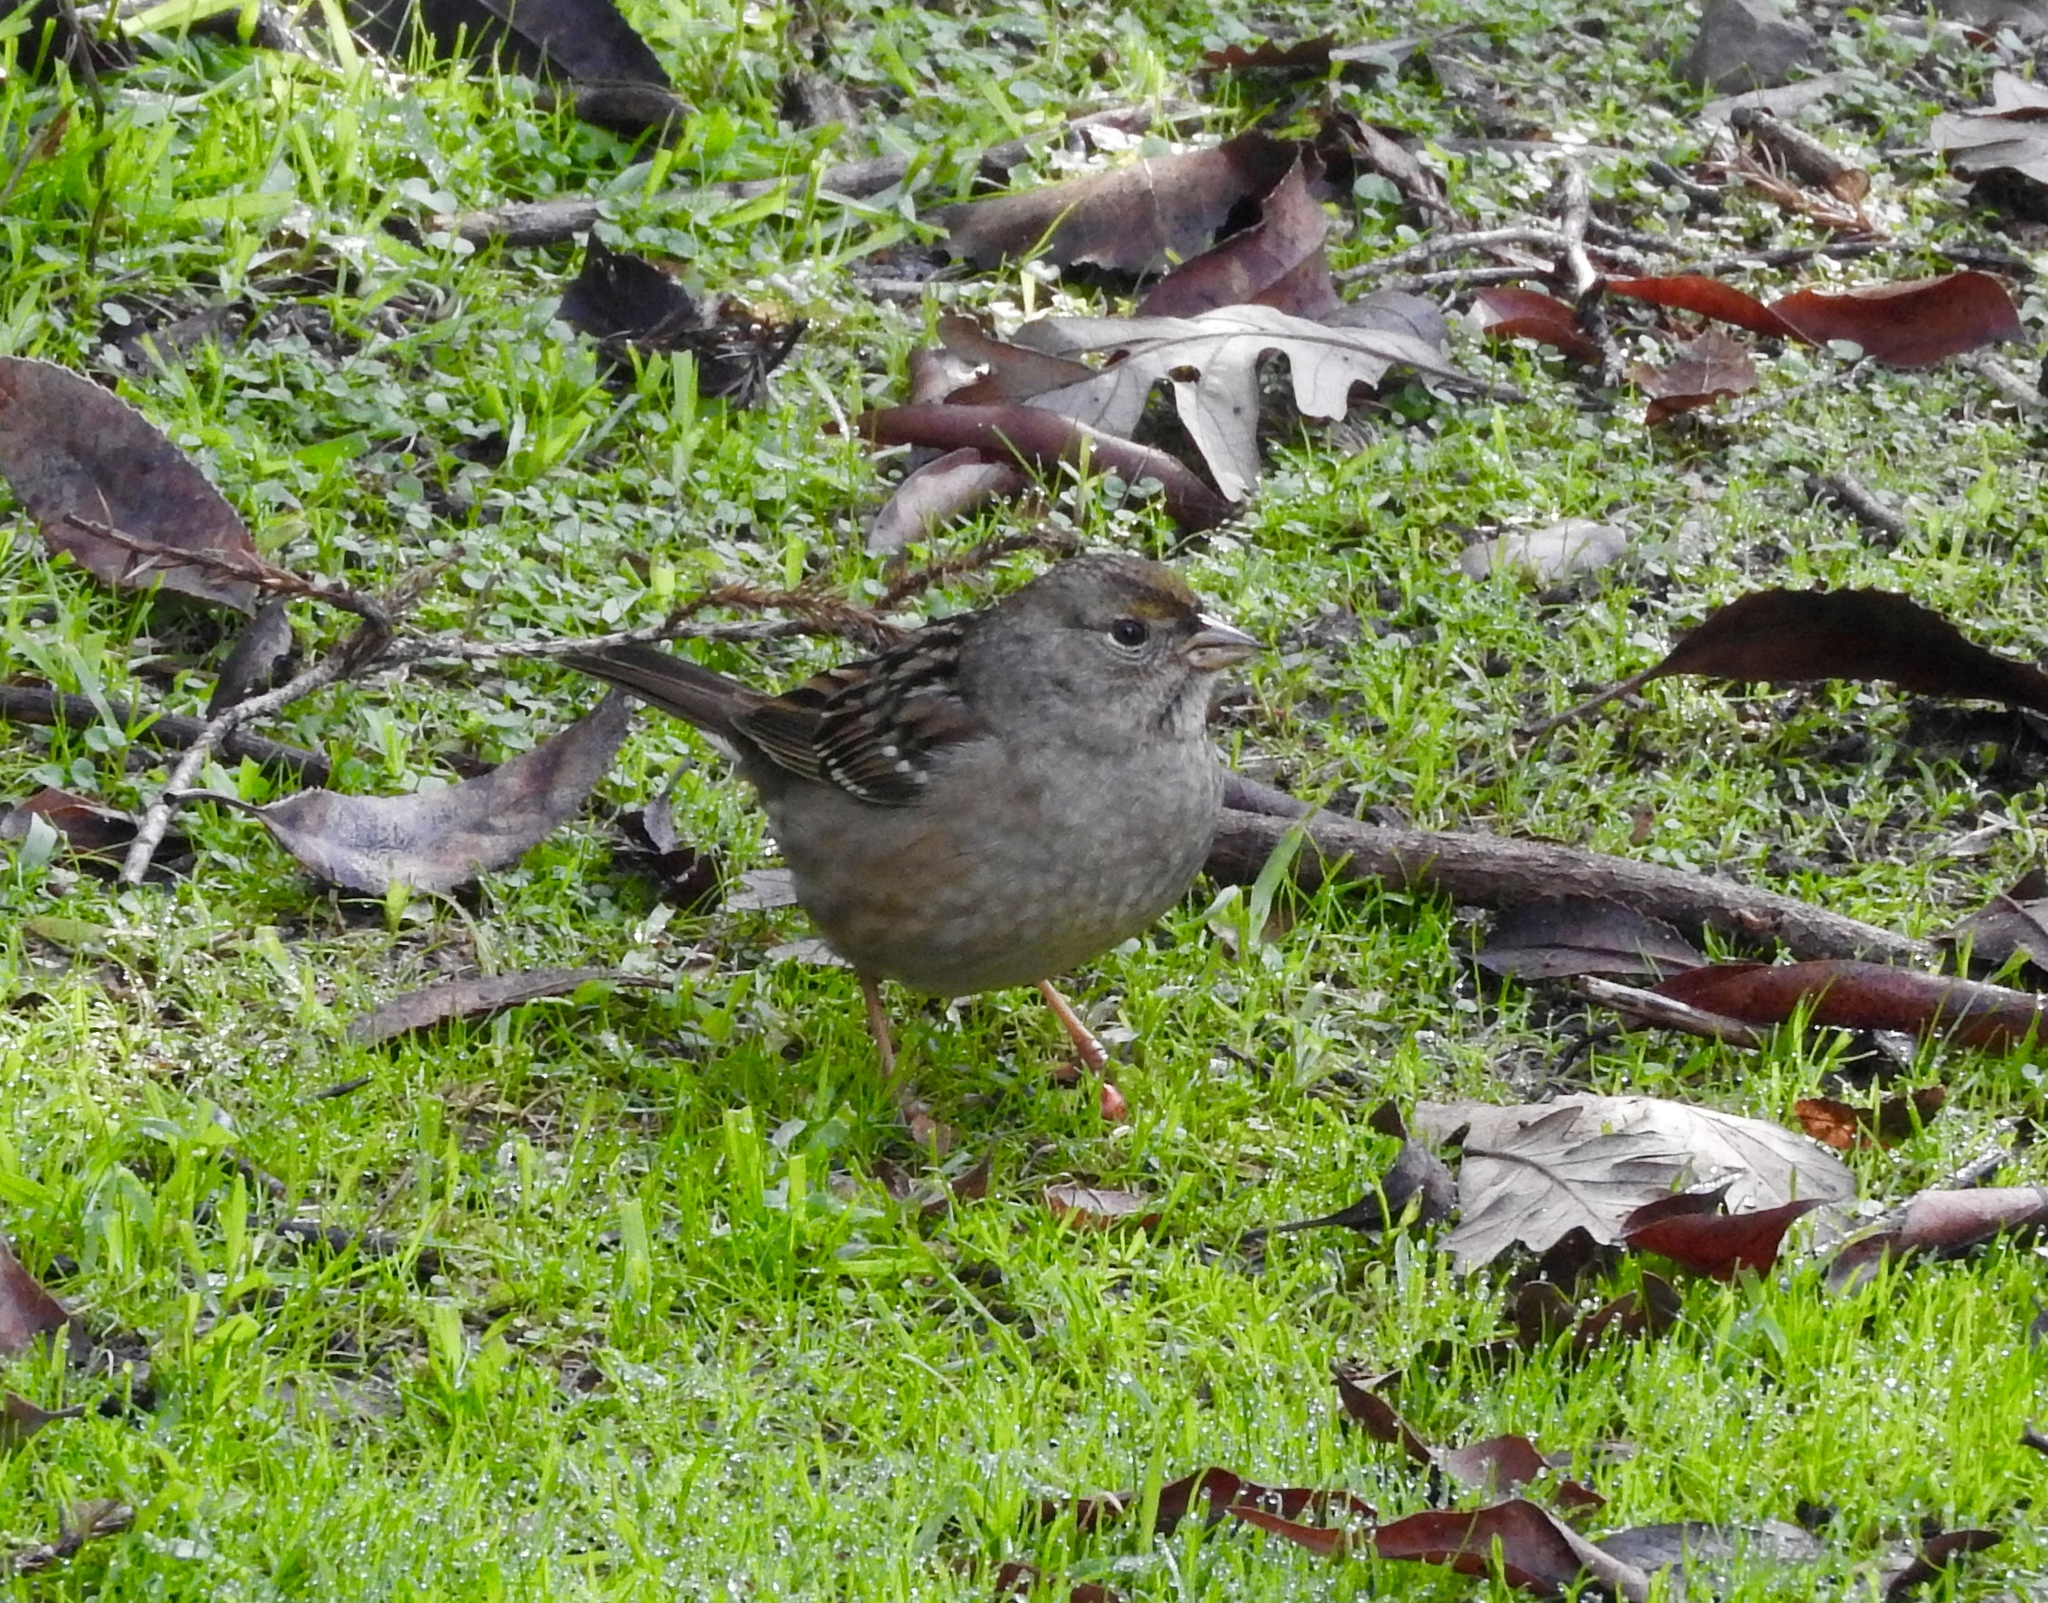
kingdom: Animalia
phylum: Chordata
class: Aves
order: Passeriformes
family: Passerellidae
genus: Zonotrichia
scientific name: Zonotrichia atricapilla
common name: Golden-crowned sparrow
